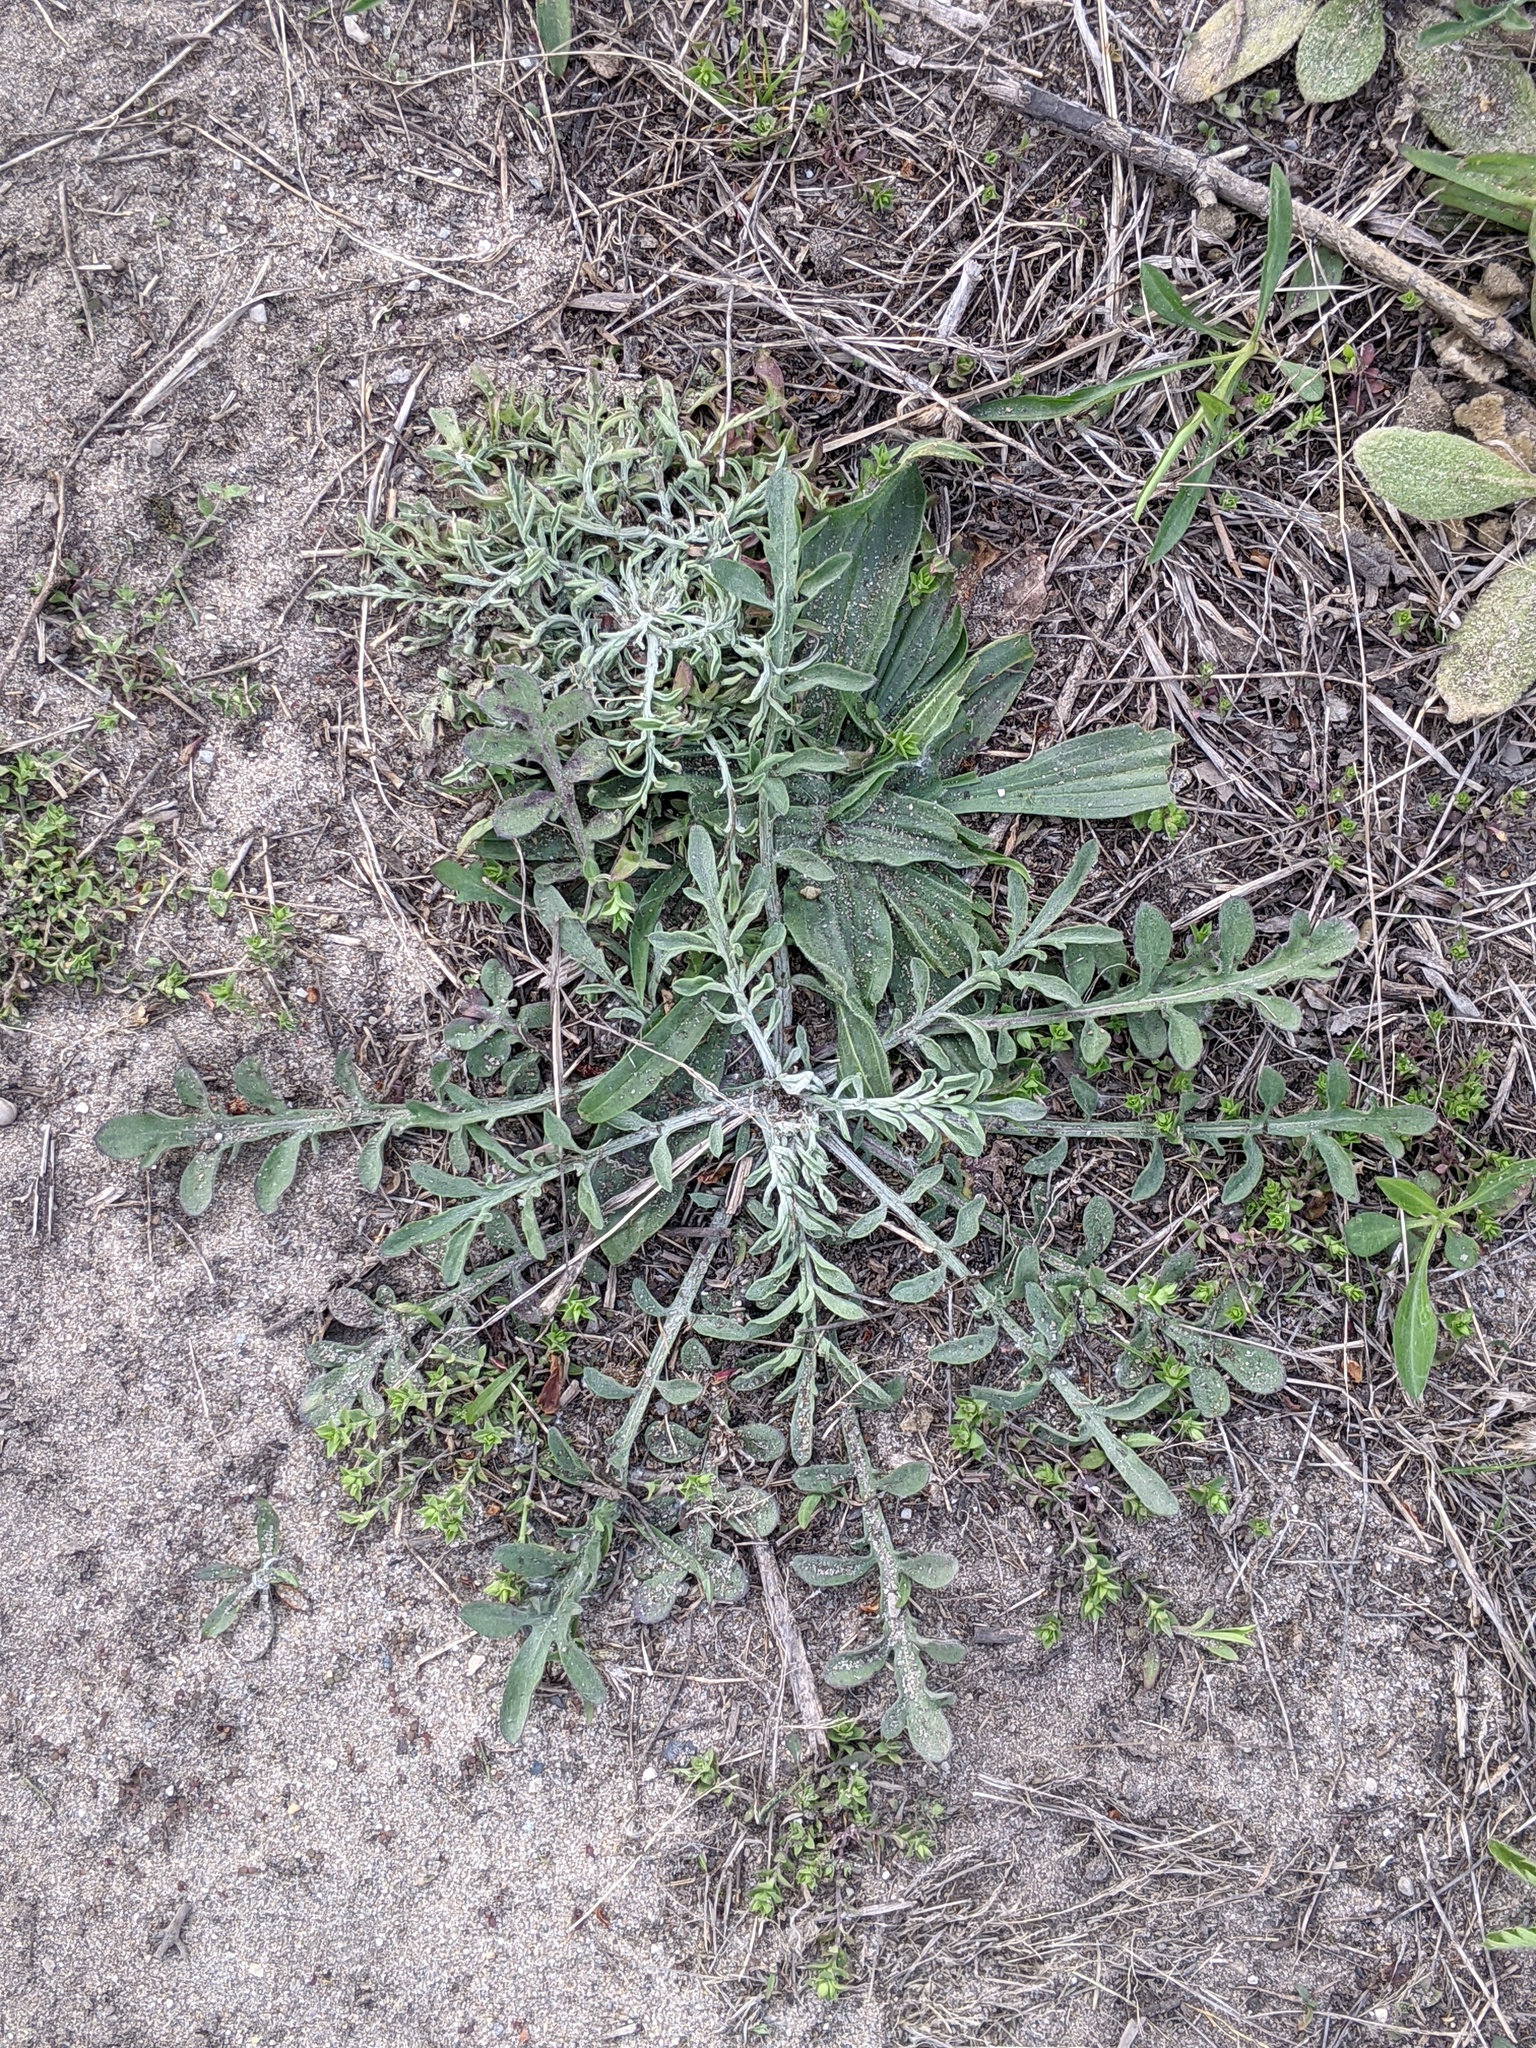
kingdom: Plantae
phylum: Tracheophyta
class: Magnoliopsida
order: Asterales
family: Asteraceae
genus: Centaurea
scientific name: Centaurea stoebe
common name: Spotted knapweed
